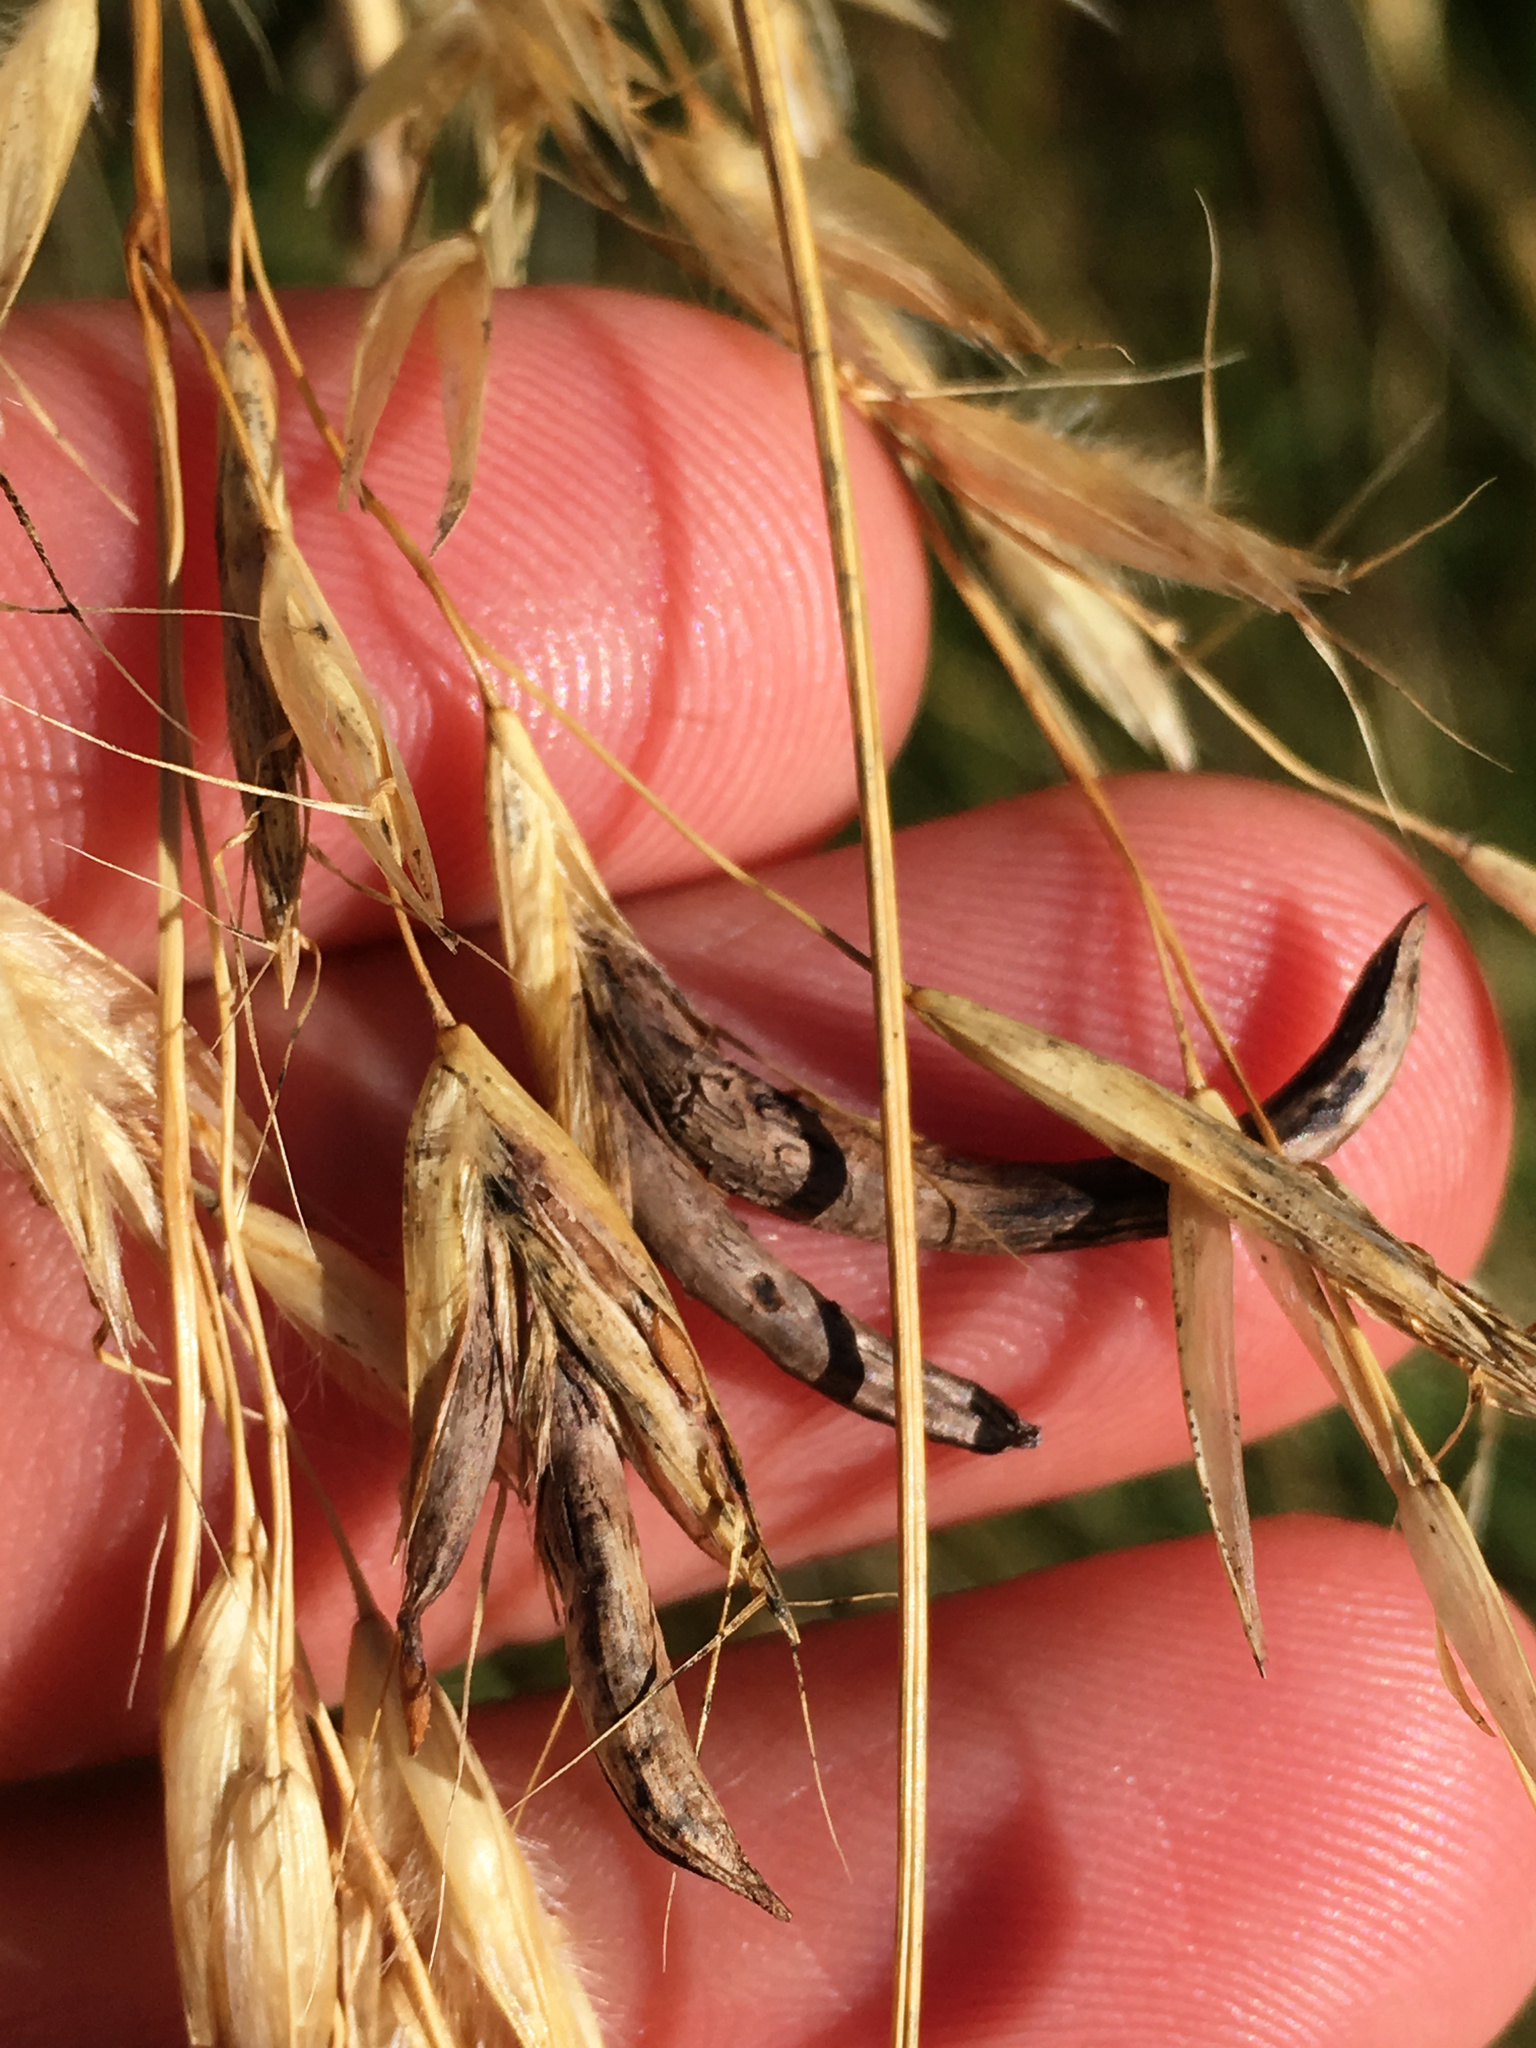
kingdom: Fungi
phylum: Ascomycota
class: Sordariomycetes
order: Hypocreales
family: Clavicipitaceae
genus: Claviceps
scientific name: Claviceps purpurea
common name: Rye ergot
